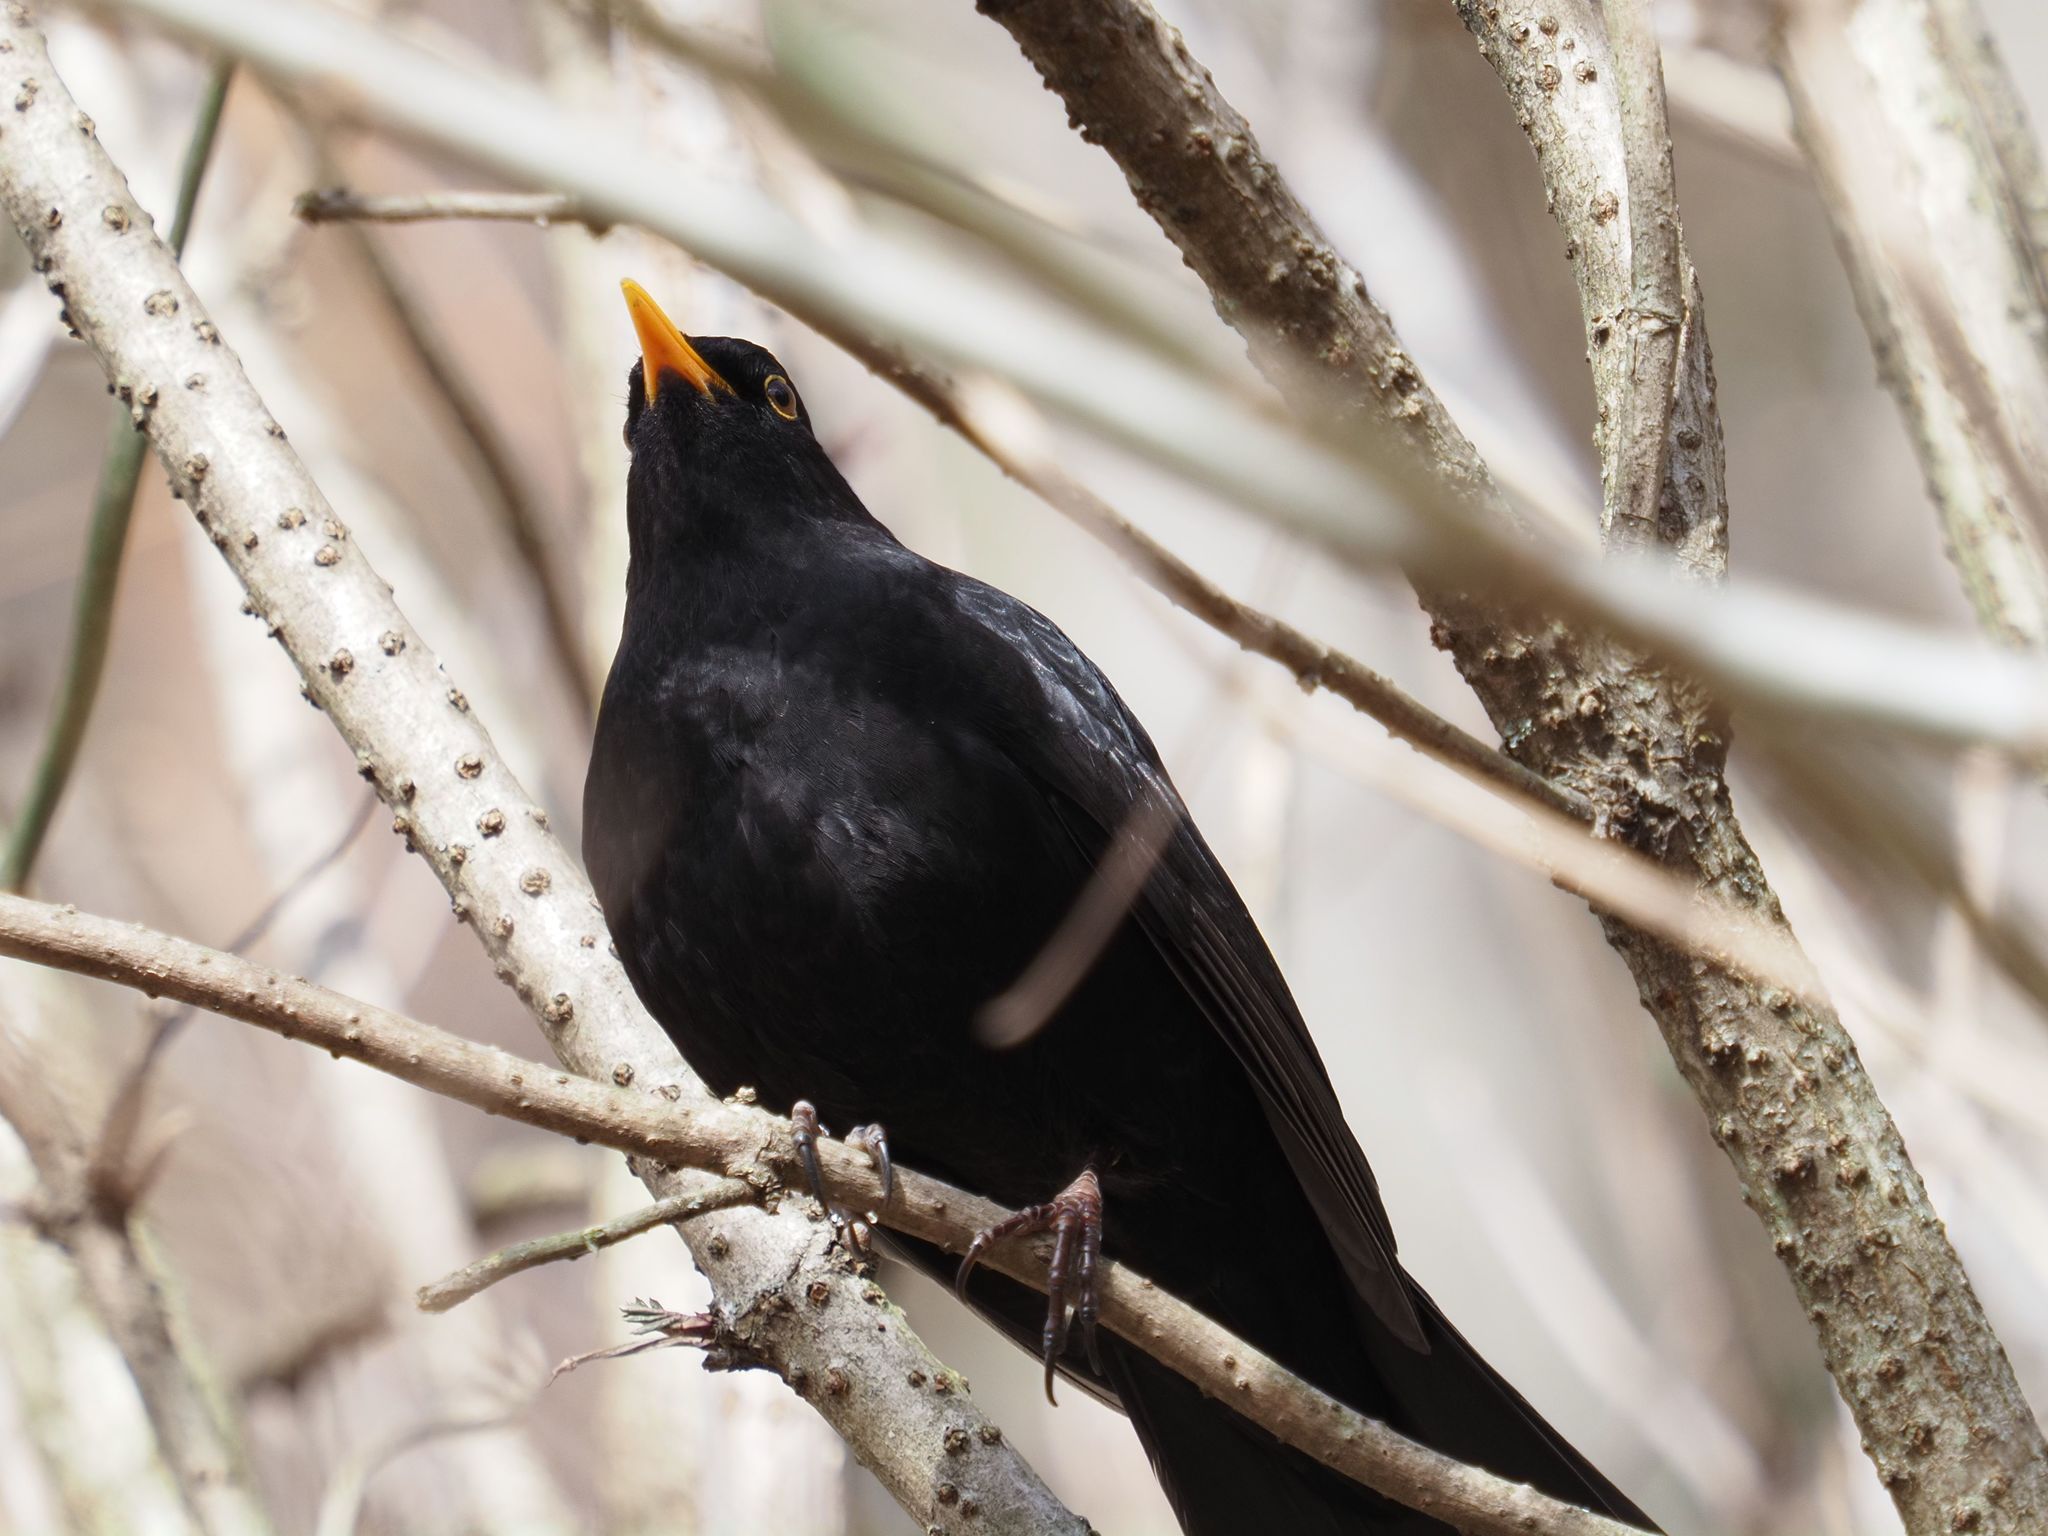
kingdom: Animalia
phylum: Chordata
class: Aves
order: Passeriformes
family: Turdidae
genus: Turdus
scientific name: Turdus merula
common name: Common blackbird
